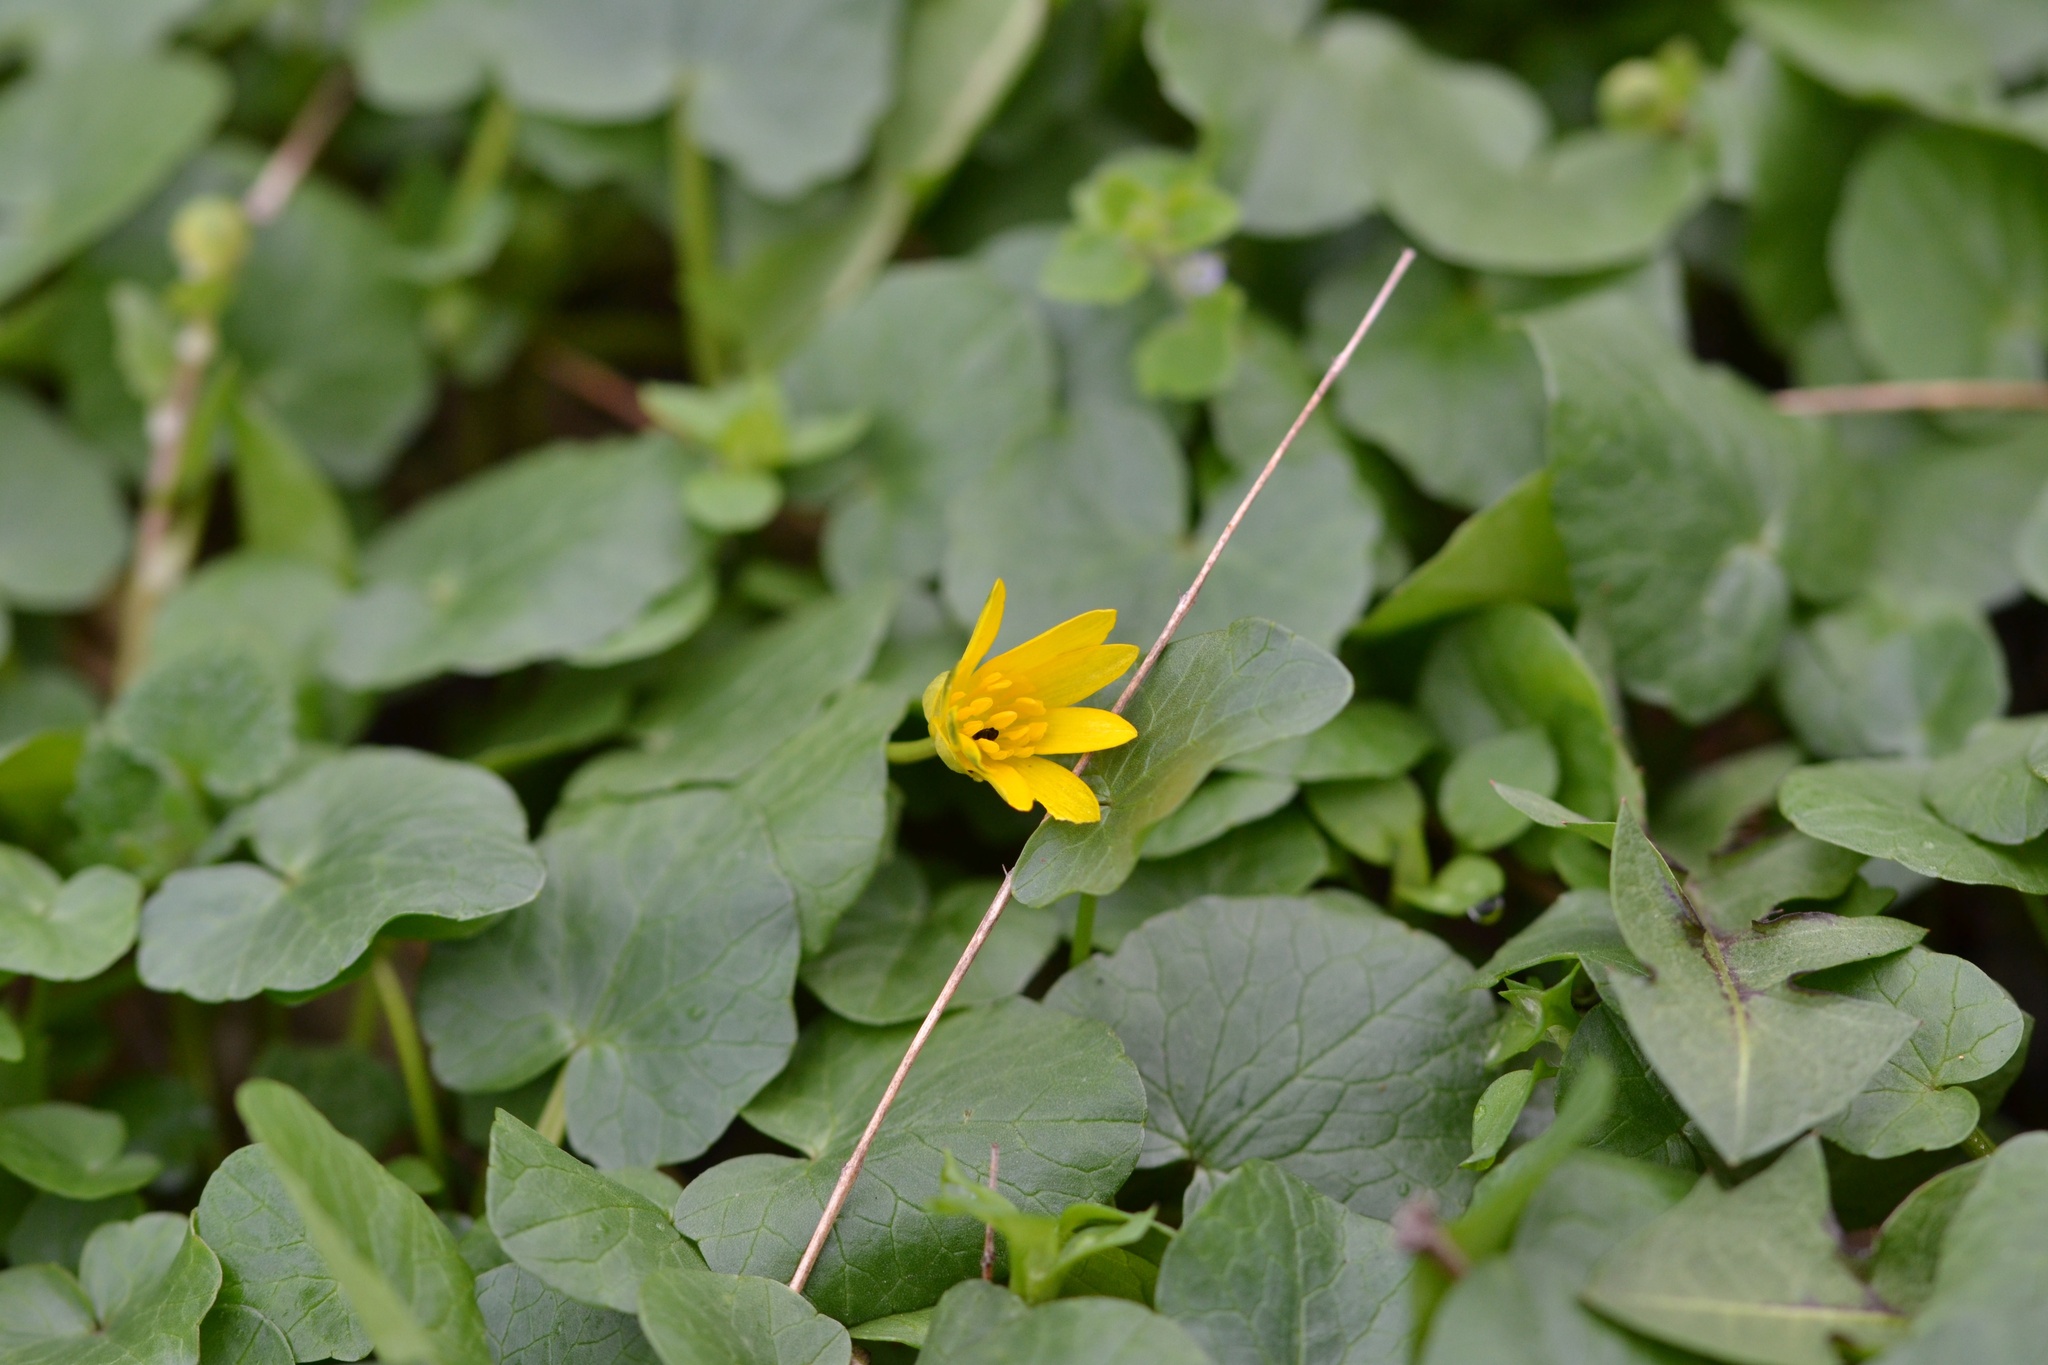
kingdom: Plantae
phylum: Tracheophyta
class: Magnoliopsida
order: Ranunculales
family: Ranunculaceae
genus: Ficaria
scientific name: Ficaria verna
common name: Lesser celandine
